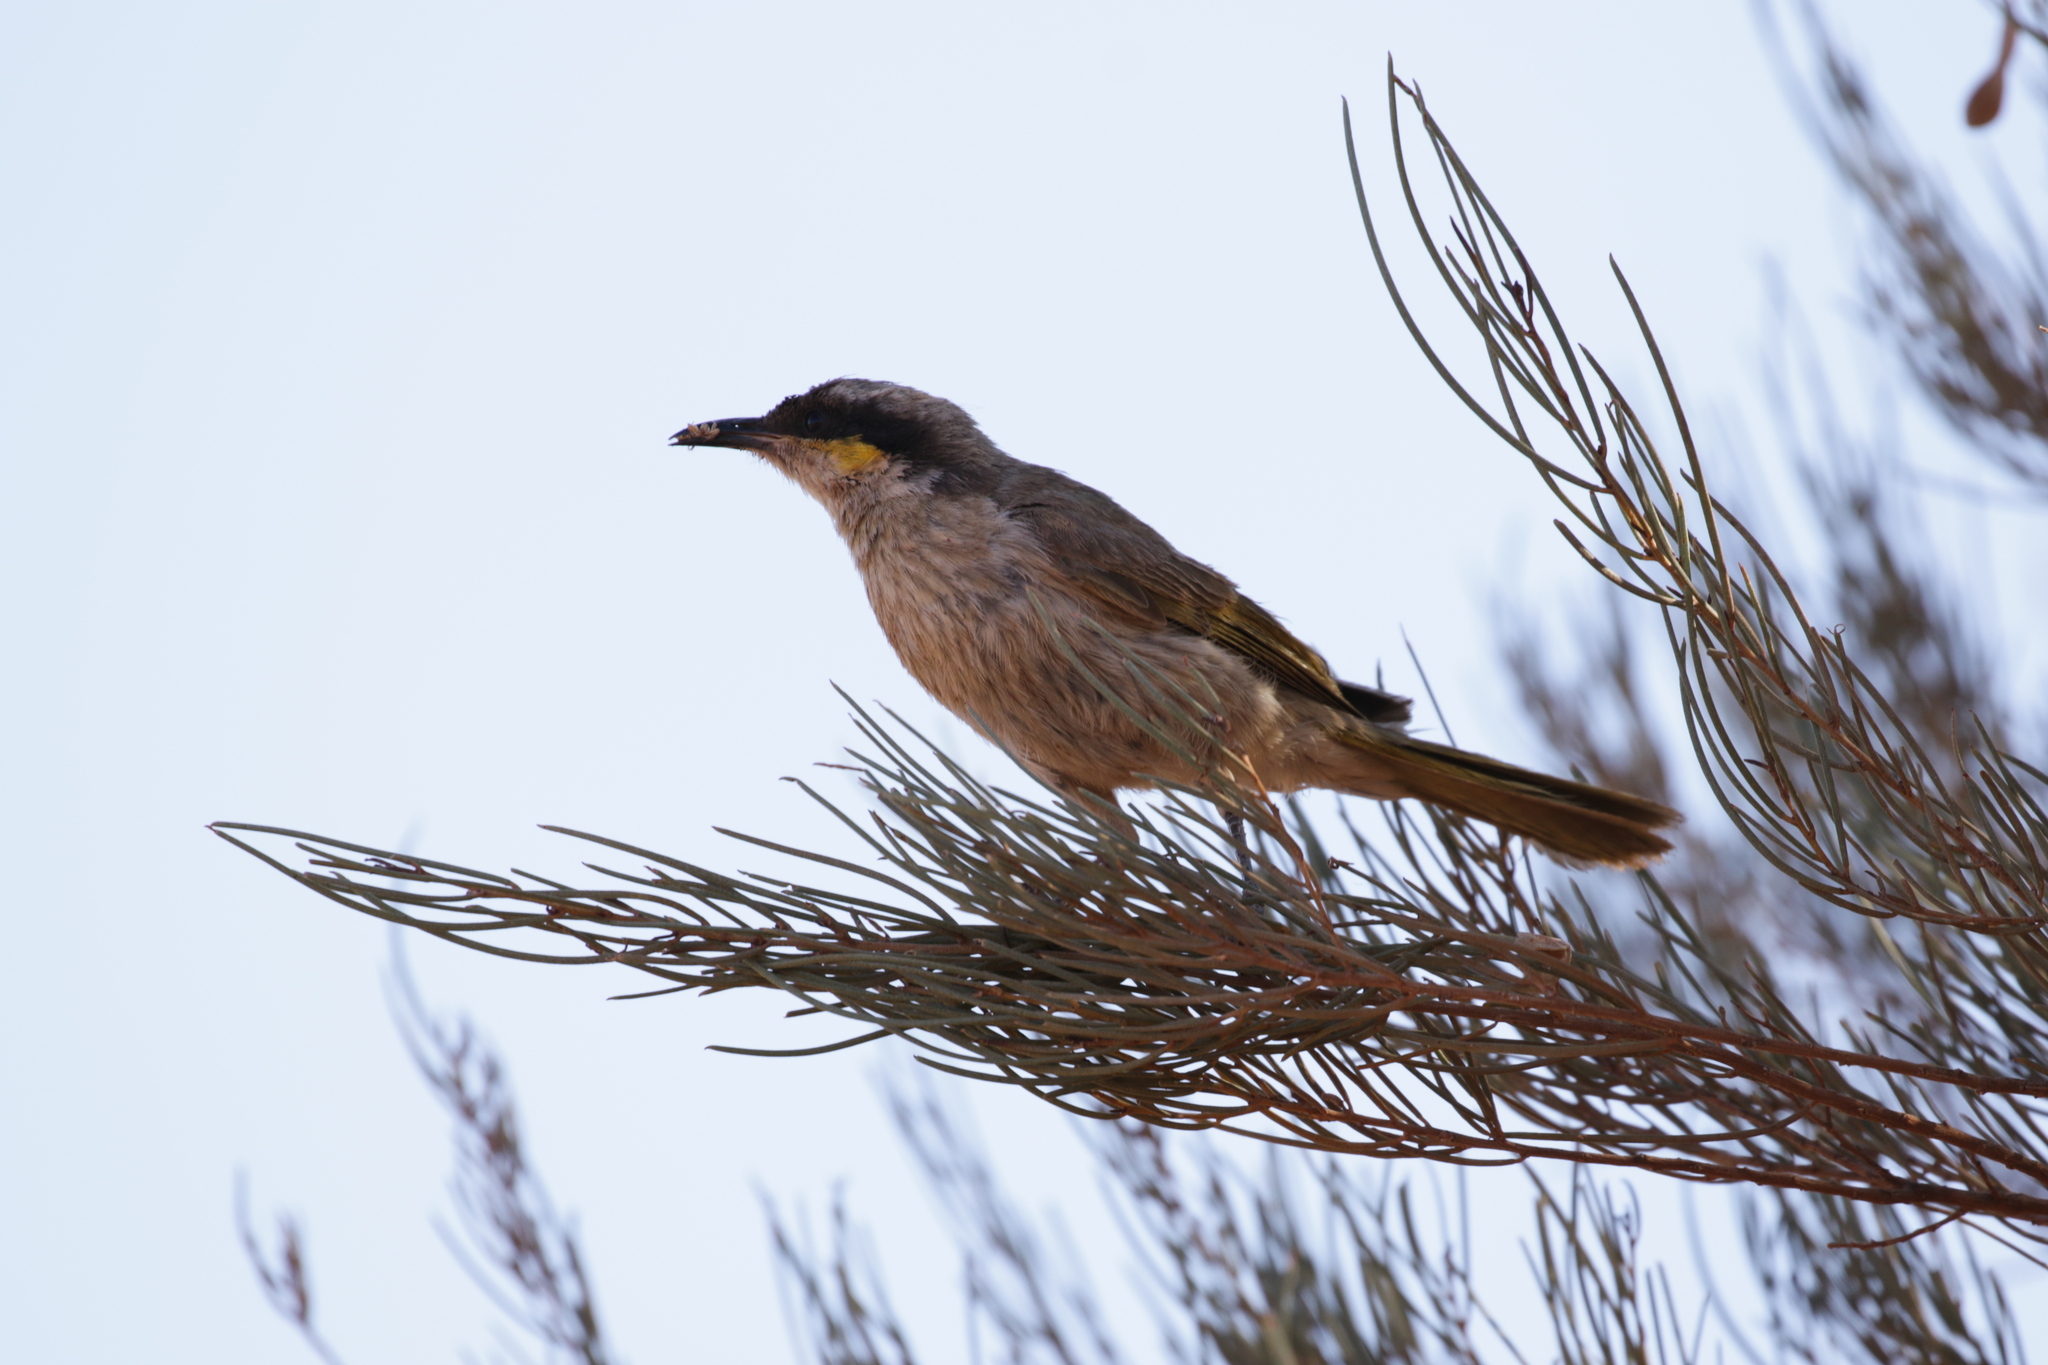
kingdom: Animalia
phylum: Chordata
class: Aves
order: Passeriformes
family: Meliphagidae
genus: Gavicalis
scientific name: Gavicalis virescens
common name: Singing honeyeater
